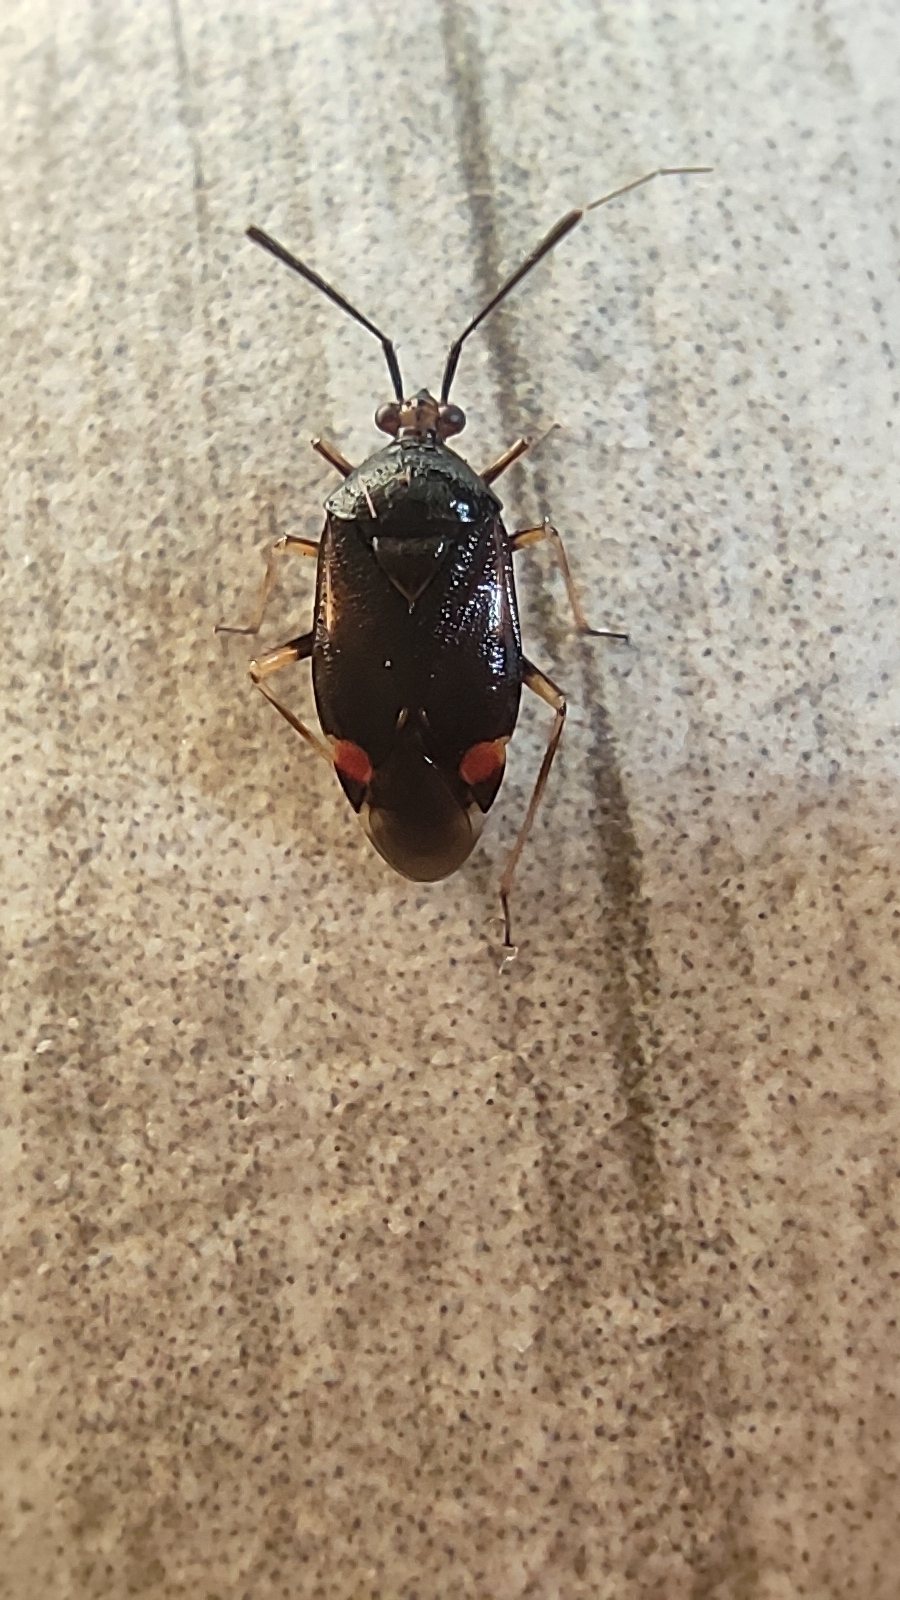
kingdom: Animalia
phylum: Arthropoda
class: Insecta
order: Hemiptera
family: Miridae
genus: Deraeocoris
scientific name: Deraeocoris ruber
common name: Plant bug
